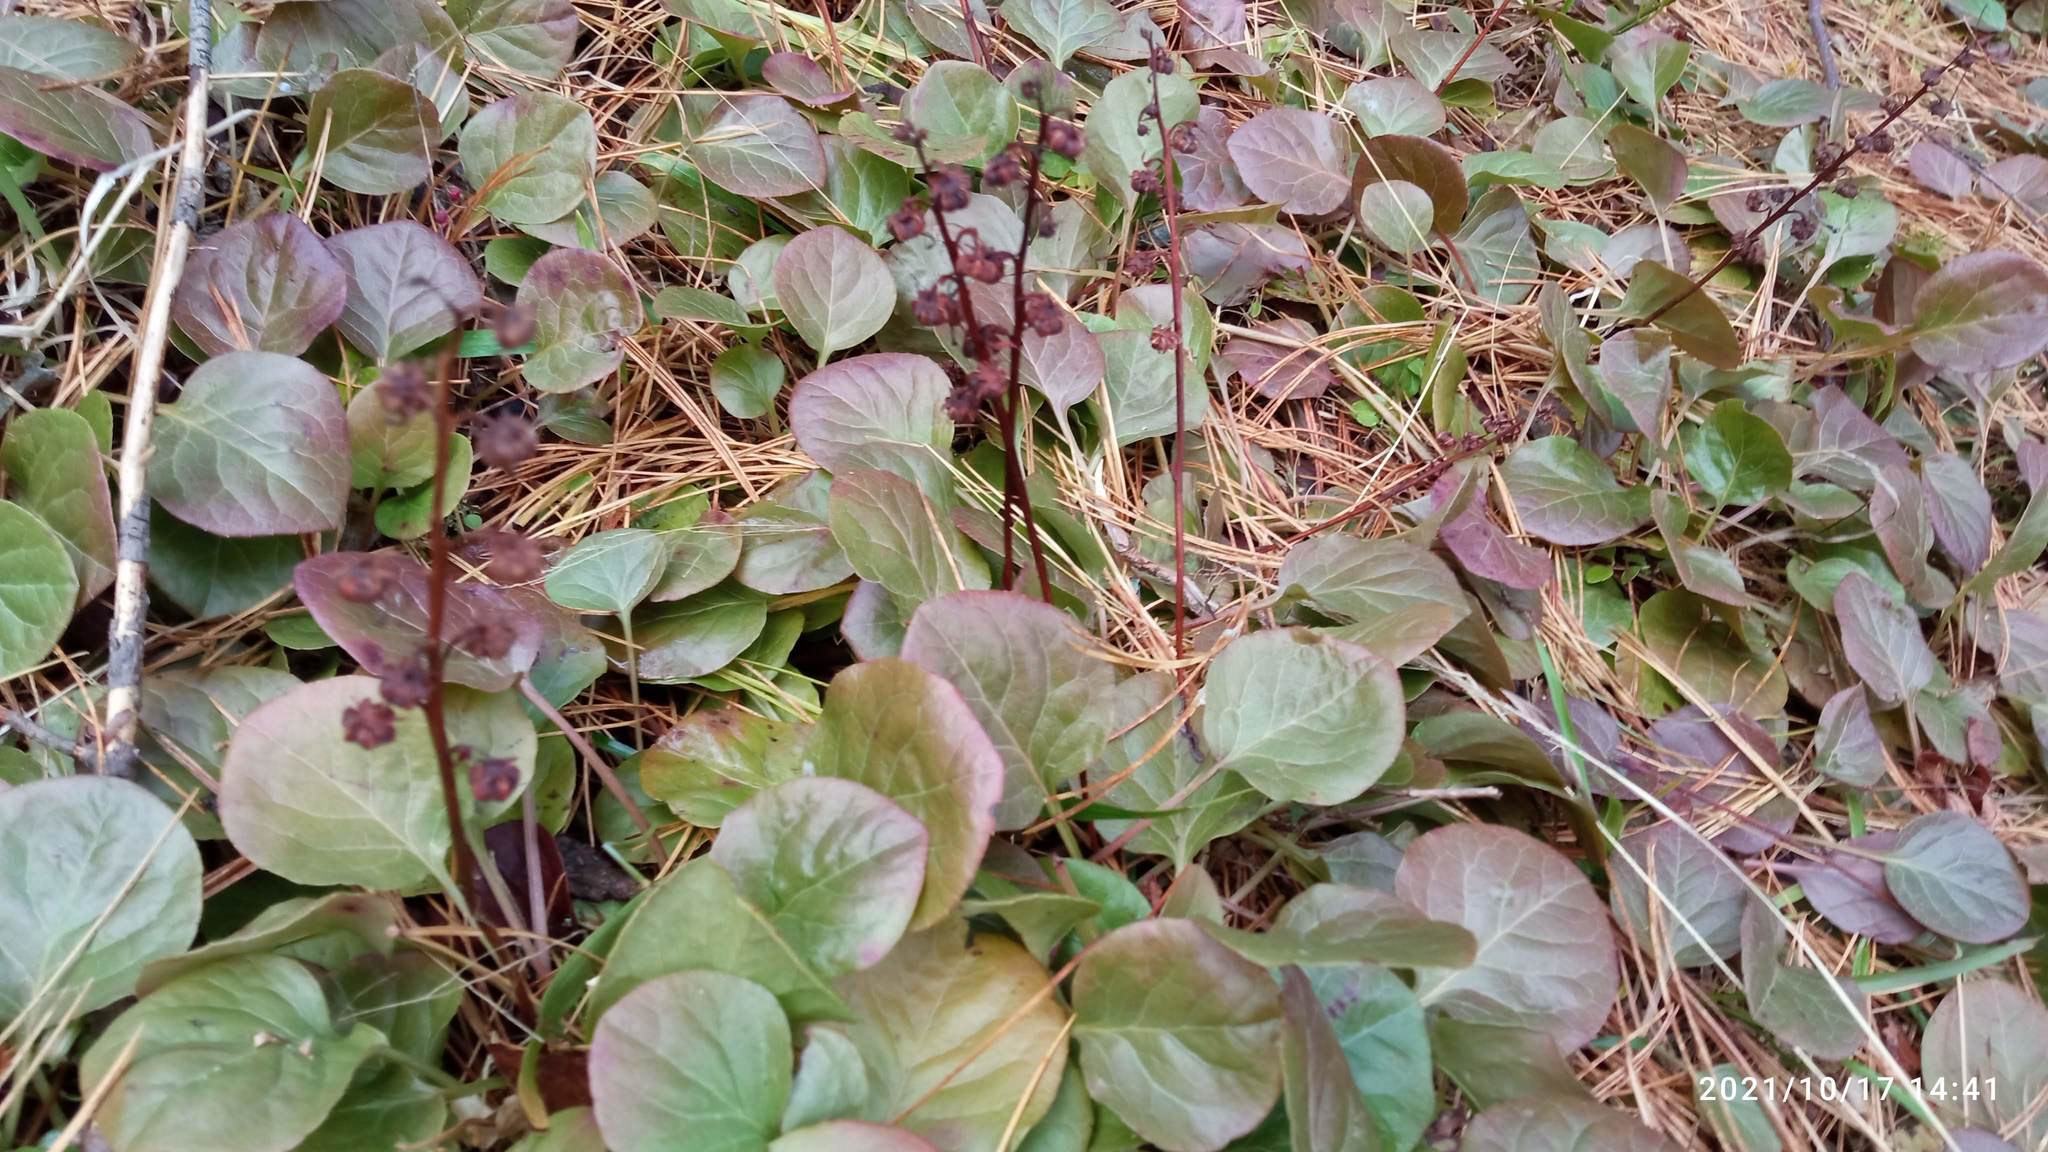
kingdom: Plantae
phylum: Tracheophyta
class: Magnoliopsida
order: Ericales
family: Ericaceae
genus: Pyrola
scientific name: Pyrola asarifolia
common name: Bog wintergreen
